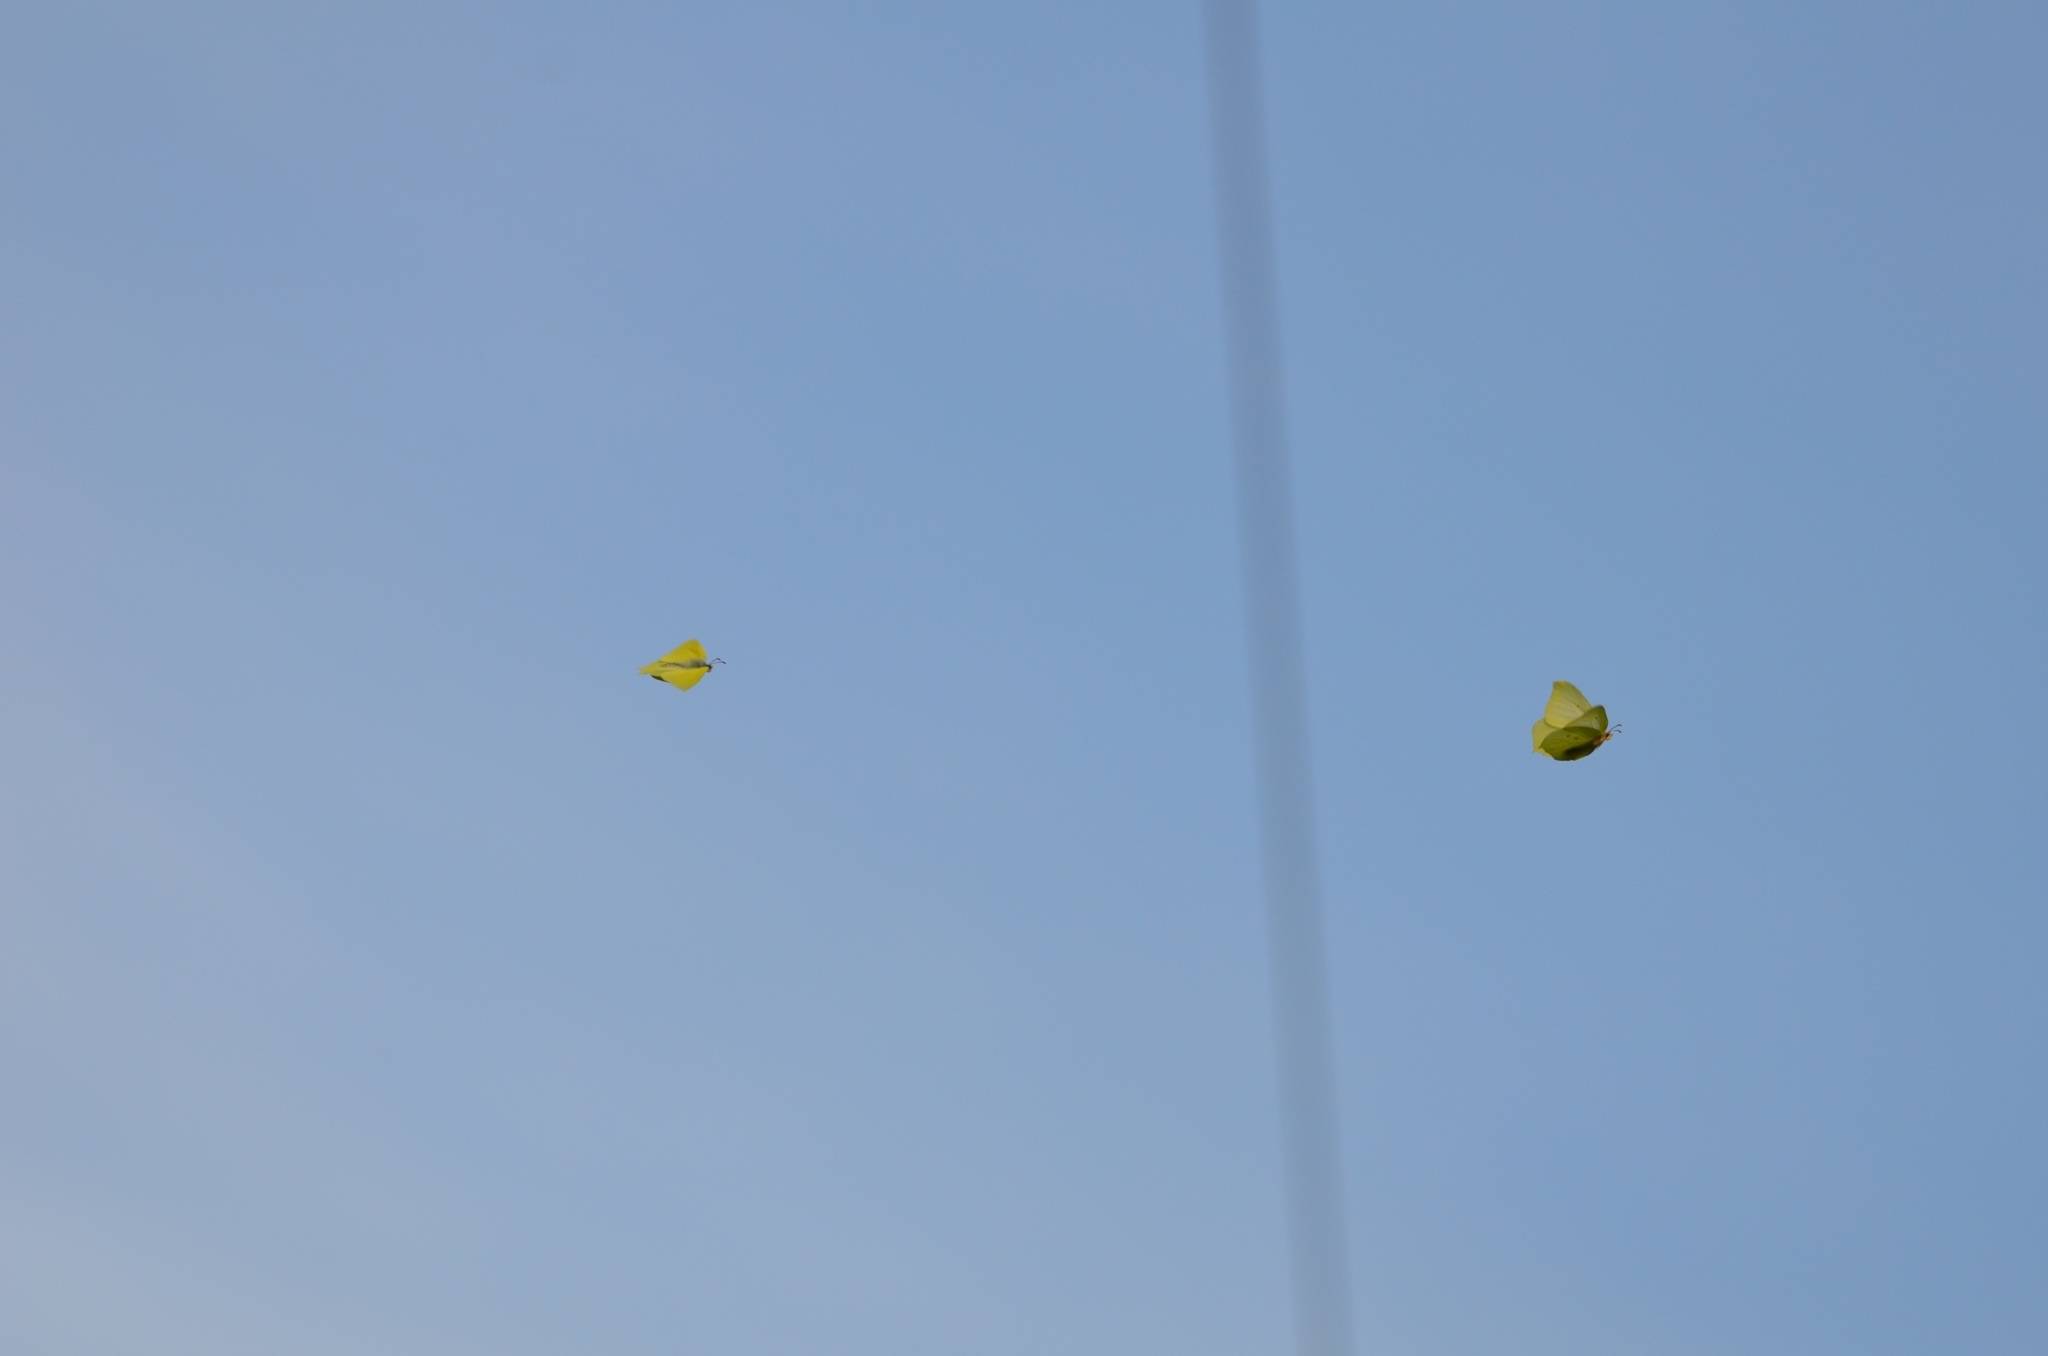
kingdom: Animalia
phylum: Arthropoda
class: Insecta
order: Lepidoptera
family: Pieridae
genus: Gonepteryx
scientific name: Gonepteryx rhamni
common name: Brimstone
